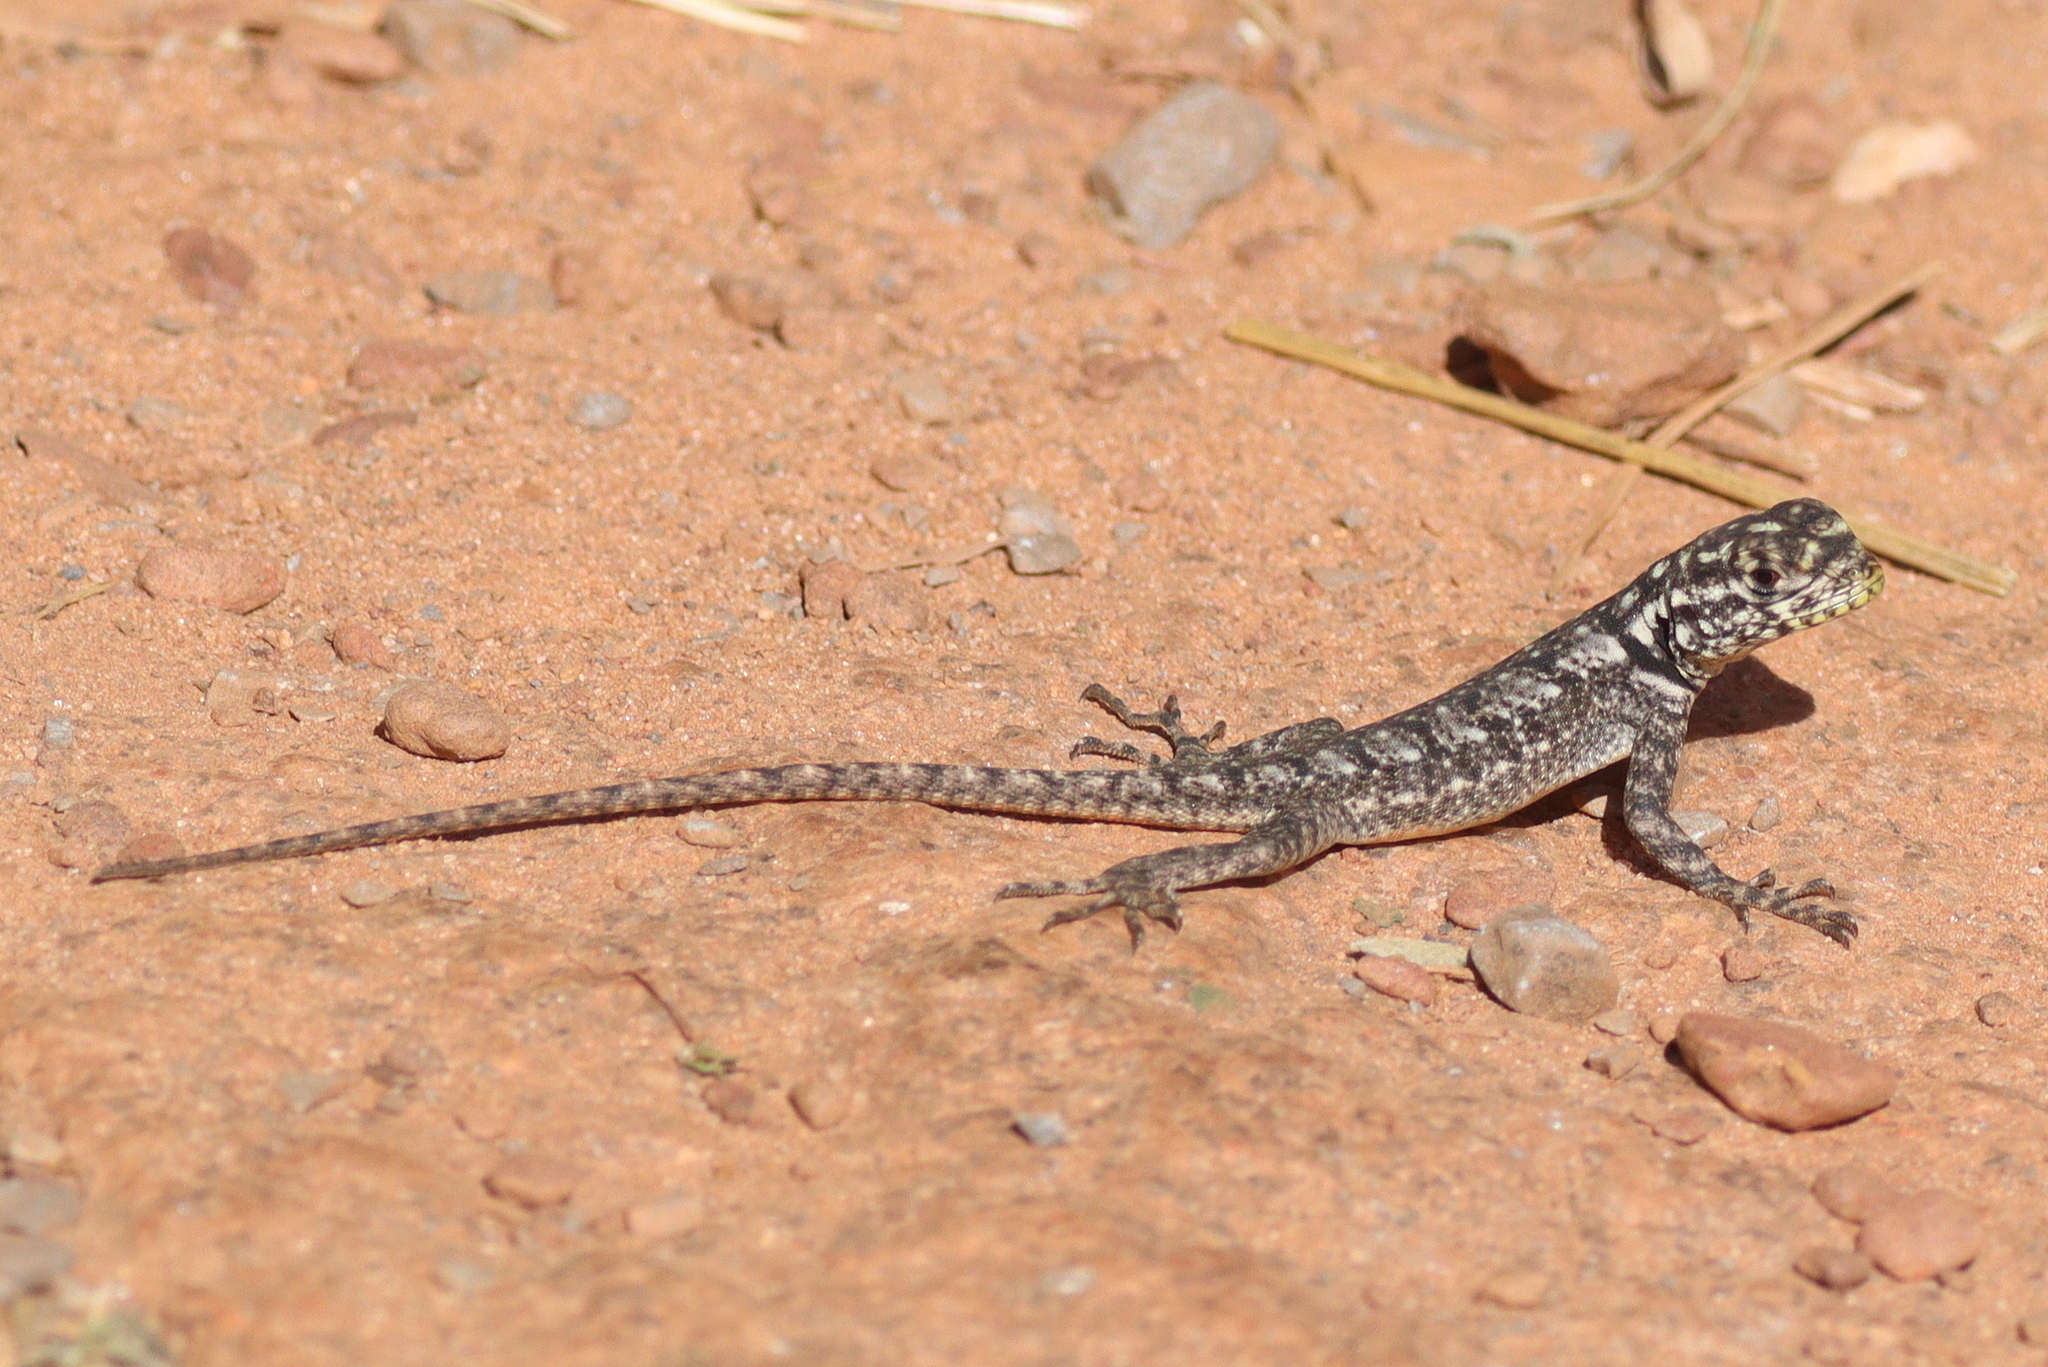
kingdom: Animalia
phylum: Chordata
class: Squamata
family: Tropiduridae
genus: Tropidurus
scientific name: Tropidurus lagunablanca
